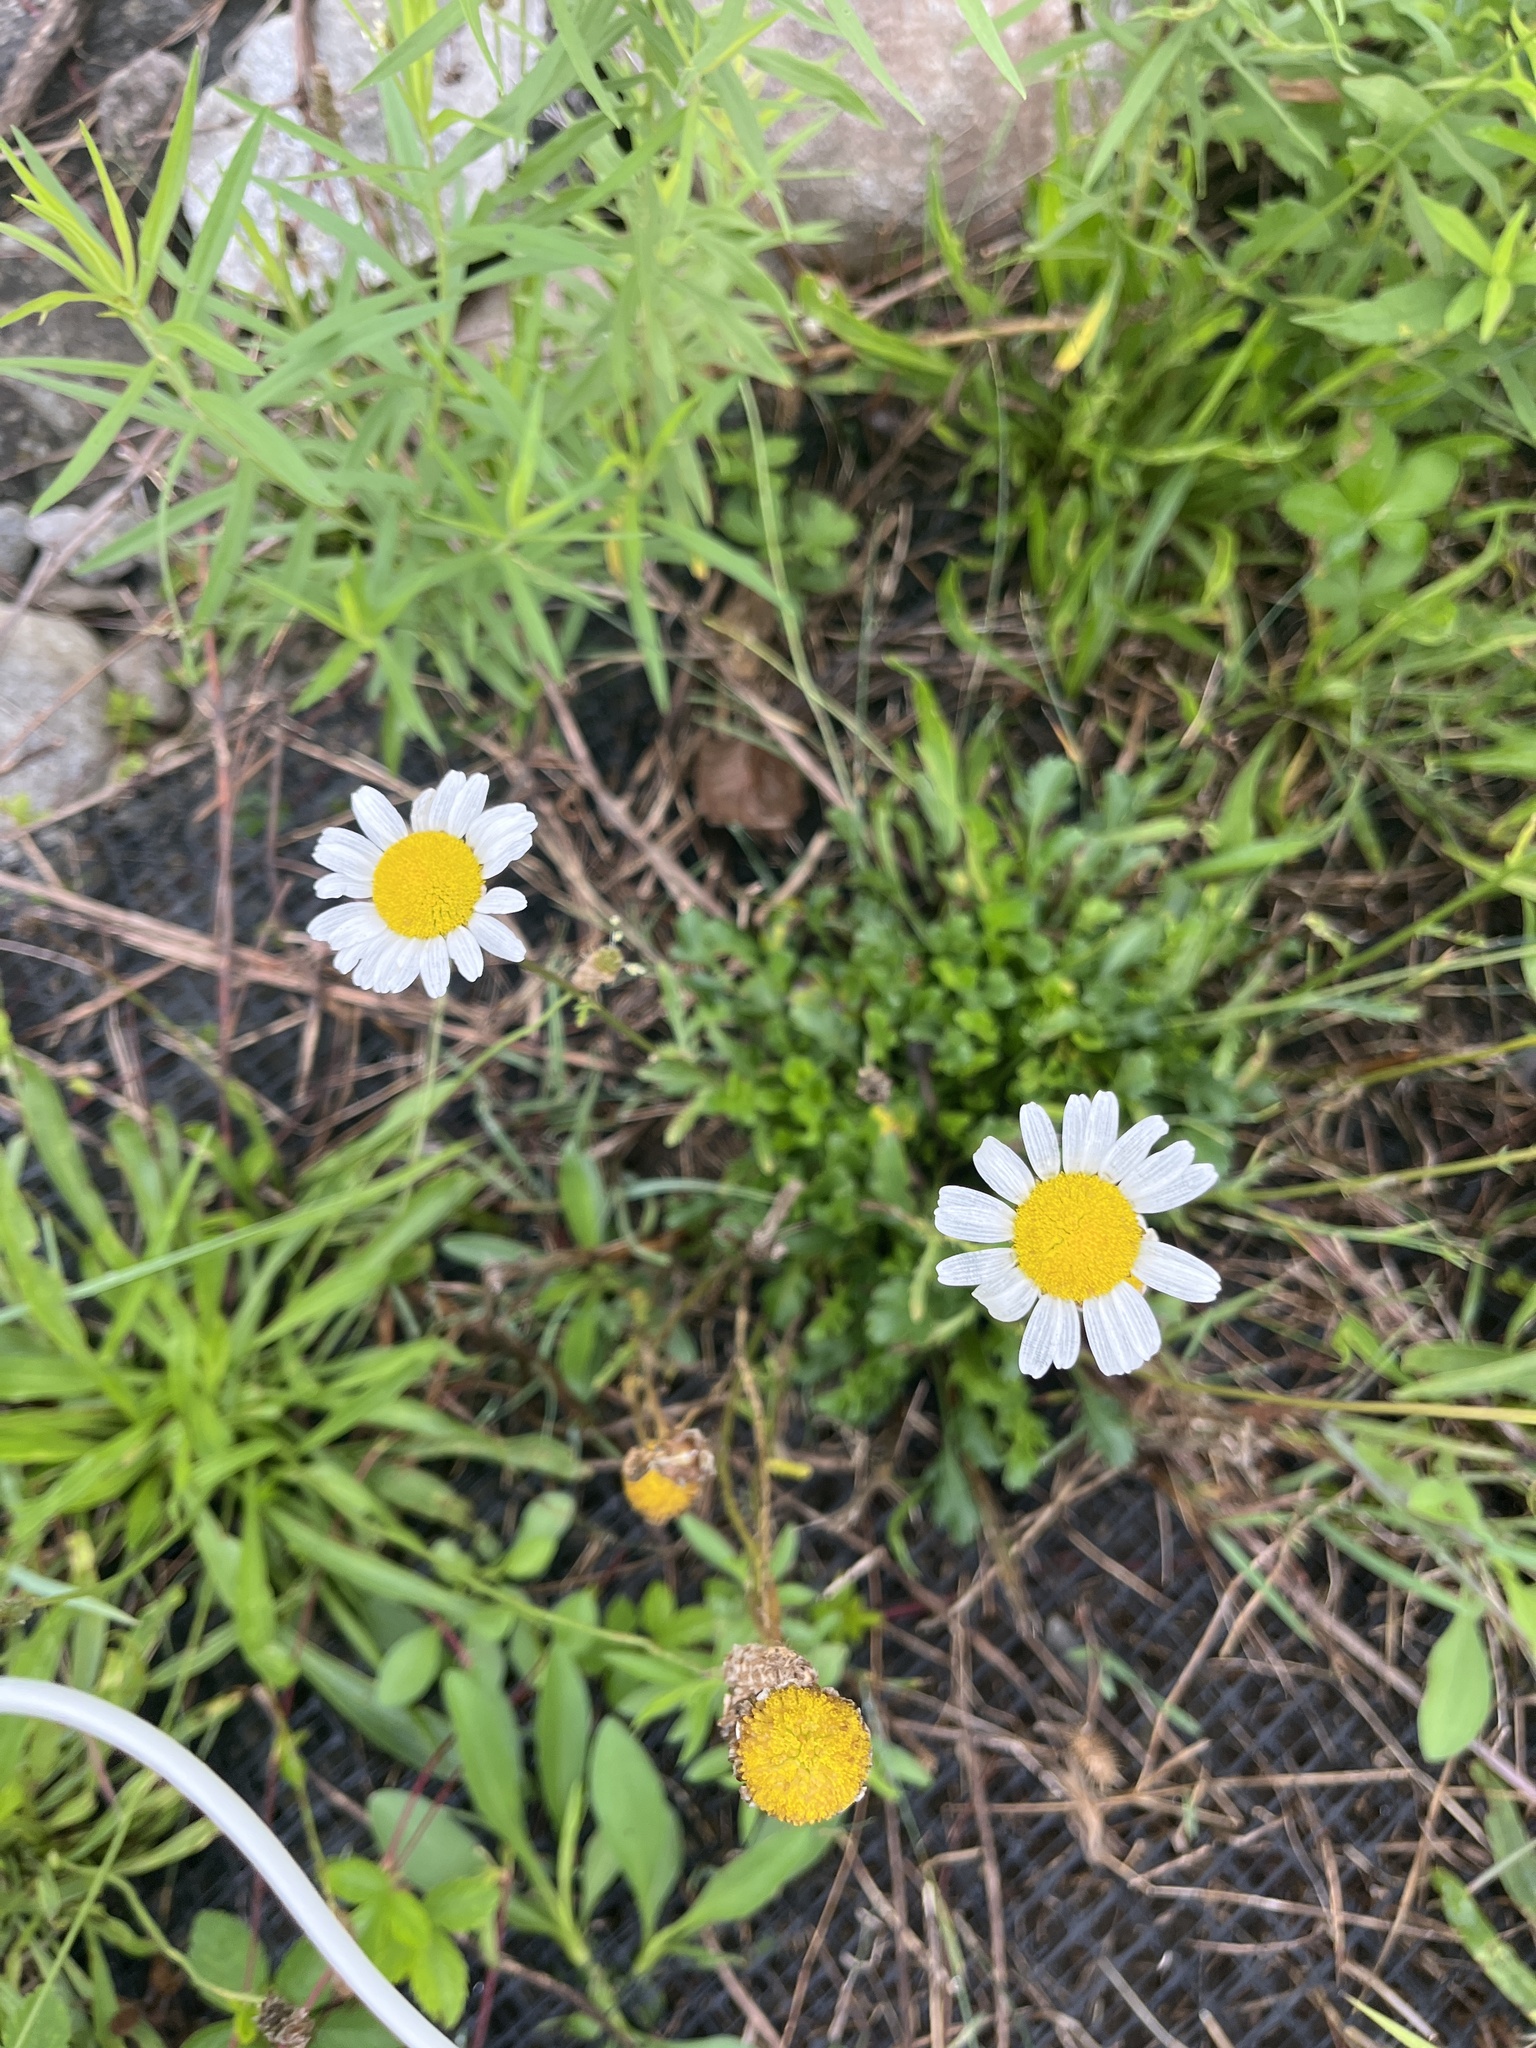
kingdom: Plantae
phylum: Tracheophyta
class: Magnoliopsida
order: Asterales
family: Asteraceae
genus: Leucanthemum
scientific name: Leucanthemum vulgare
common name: Oxeye daisy
